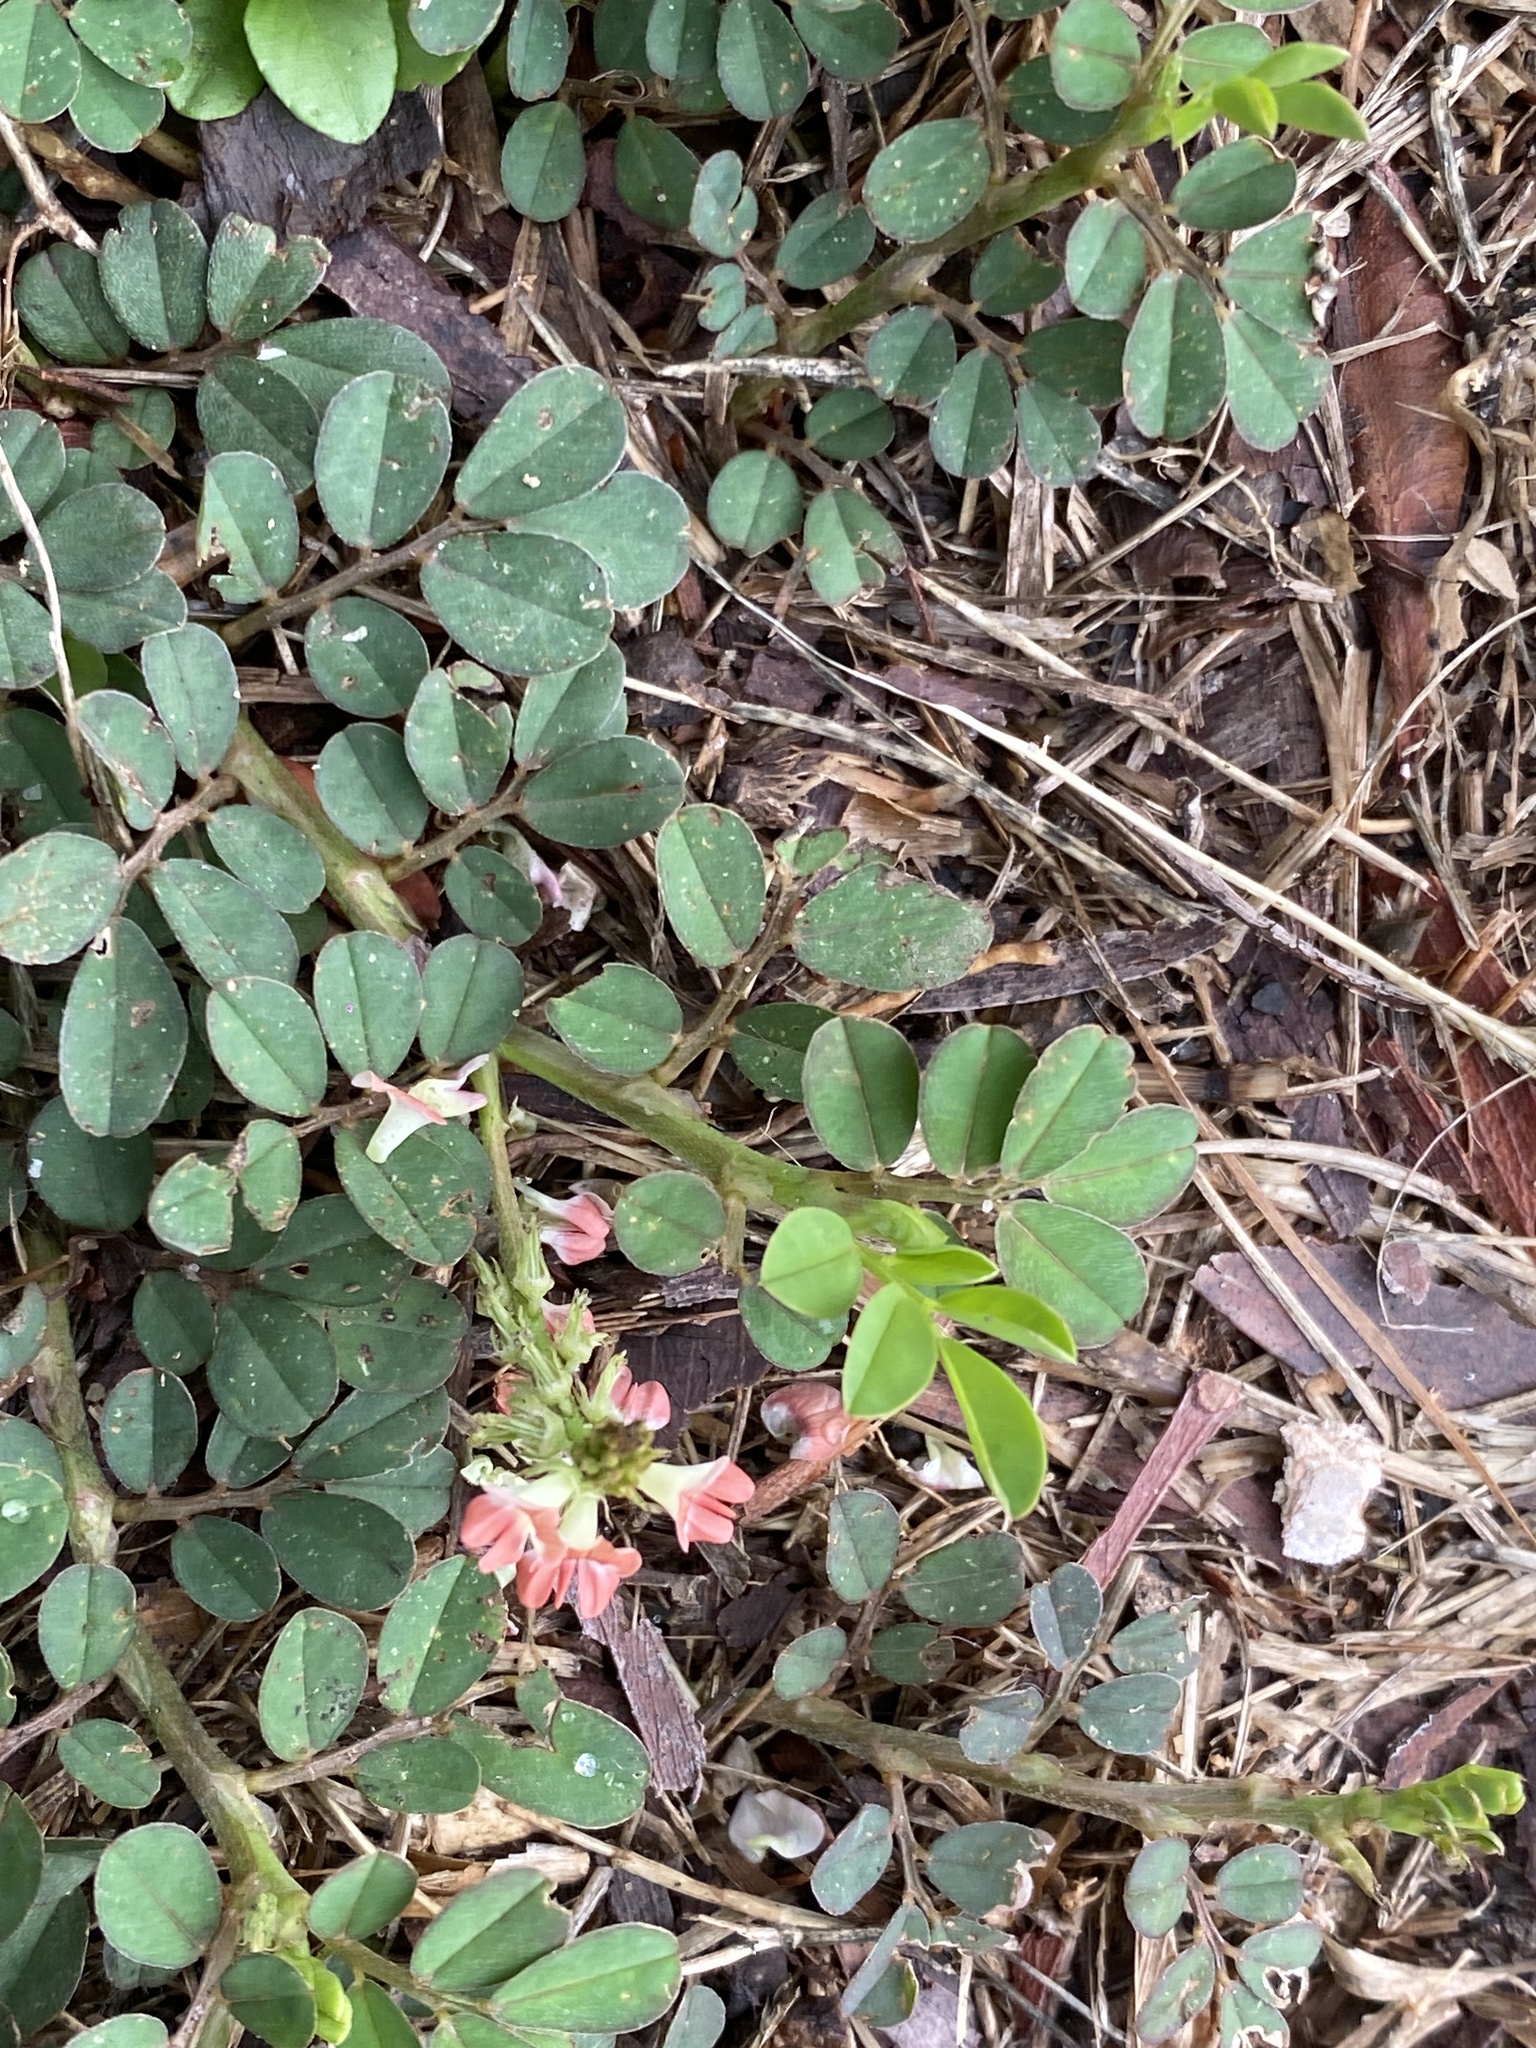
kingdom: Plantae
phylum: Tracheophyta
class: Magnoliopsida
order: Fabales
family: Fabaceae
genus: Indigofera
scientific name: Indigofera spicata
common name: Creeping indigo
